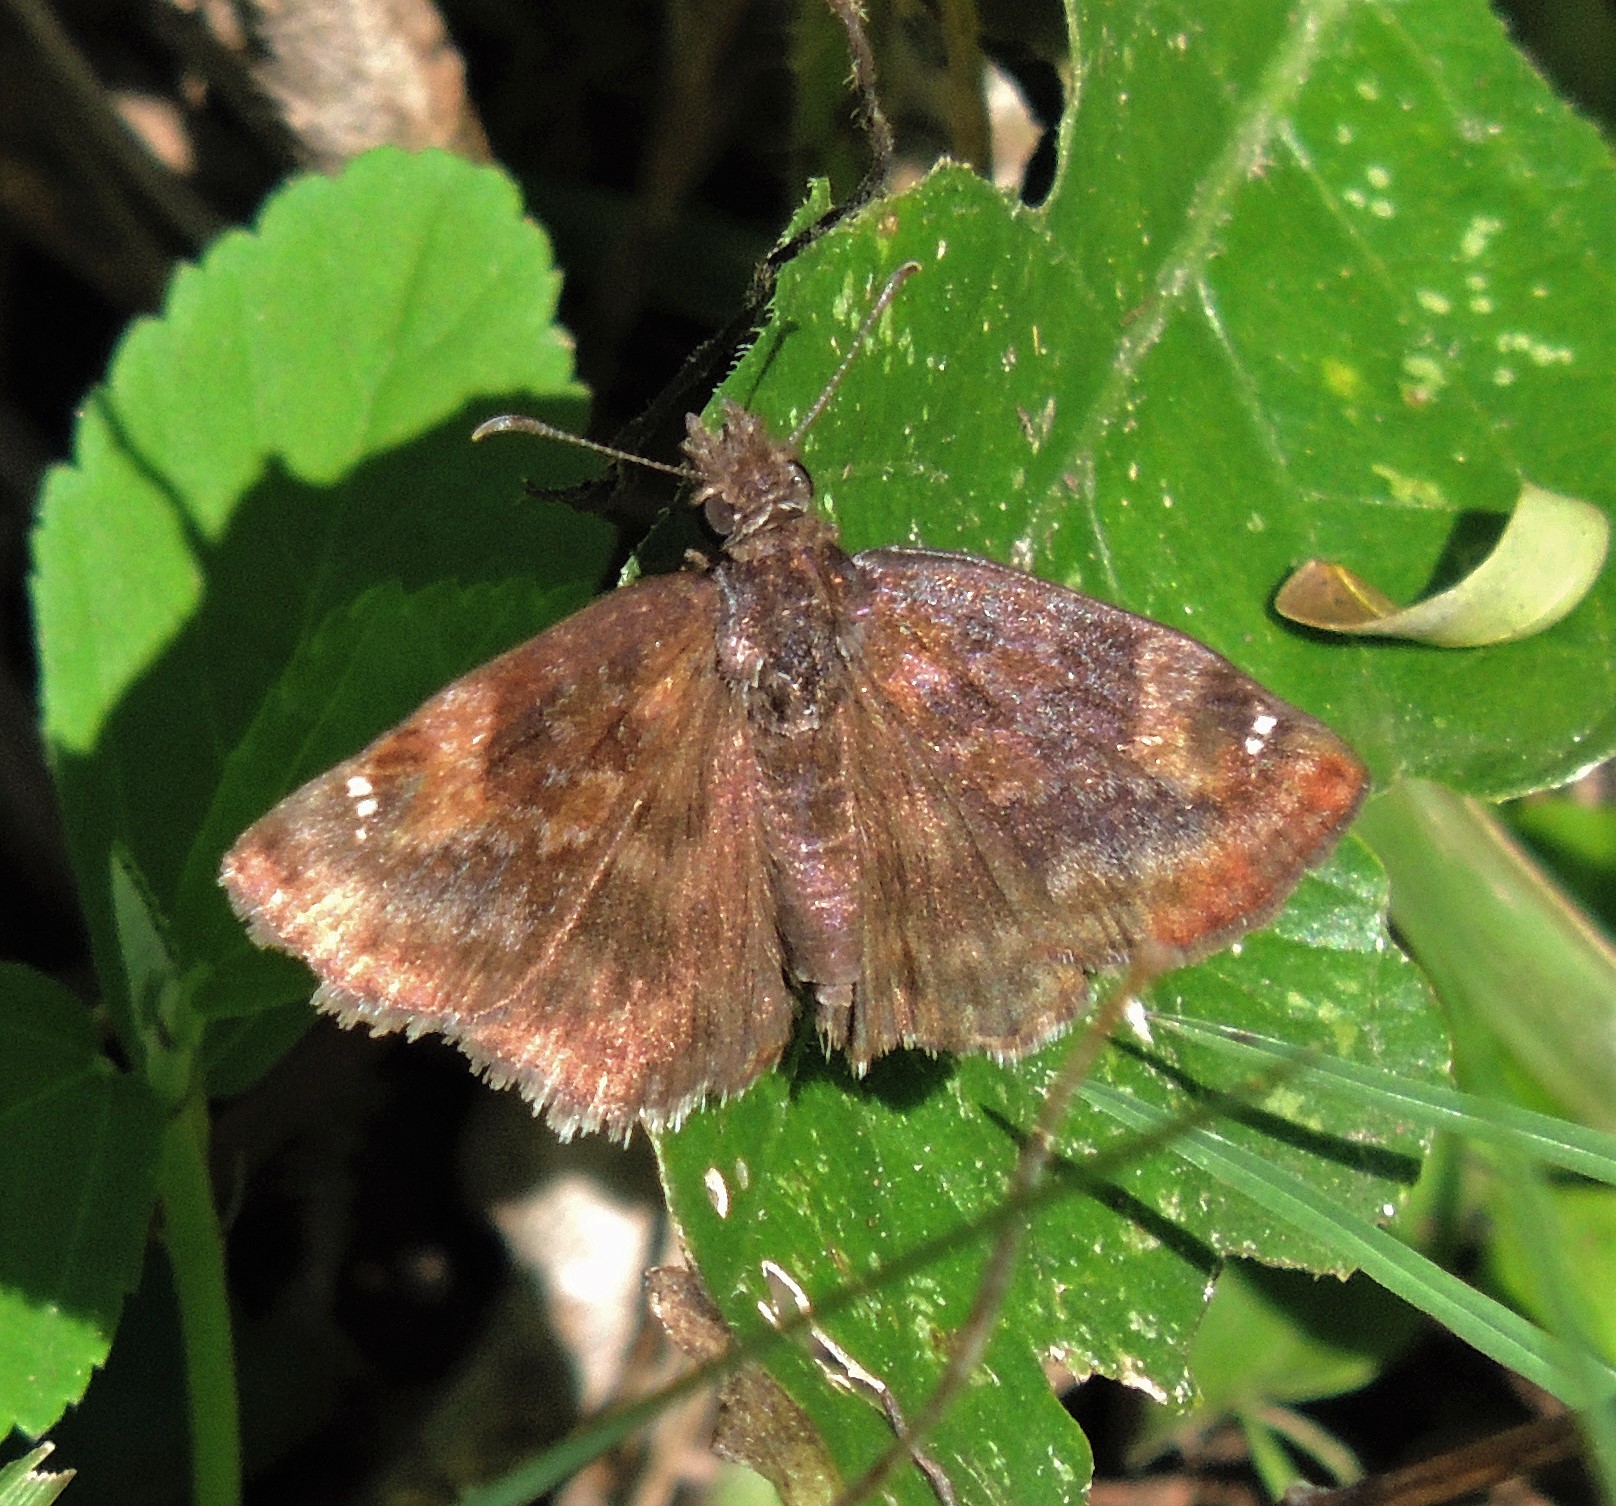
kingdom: Animalia
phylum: Arthropoda
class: Insecta
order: Lepidoptera
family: Hesperiidae
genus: Gesta
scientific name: Gesta gesta
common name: Gesta duskywing
